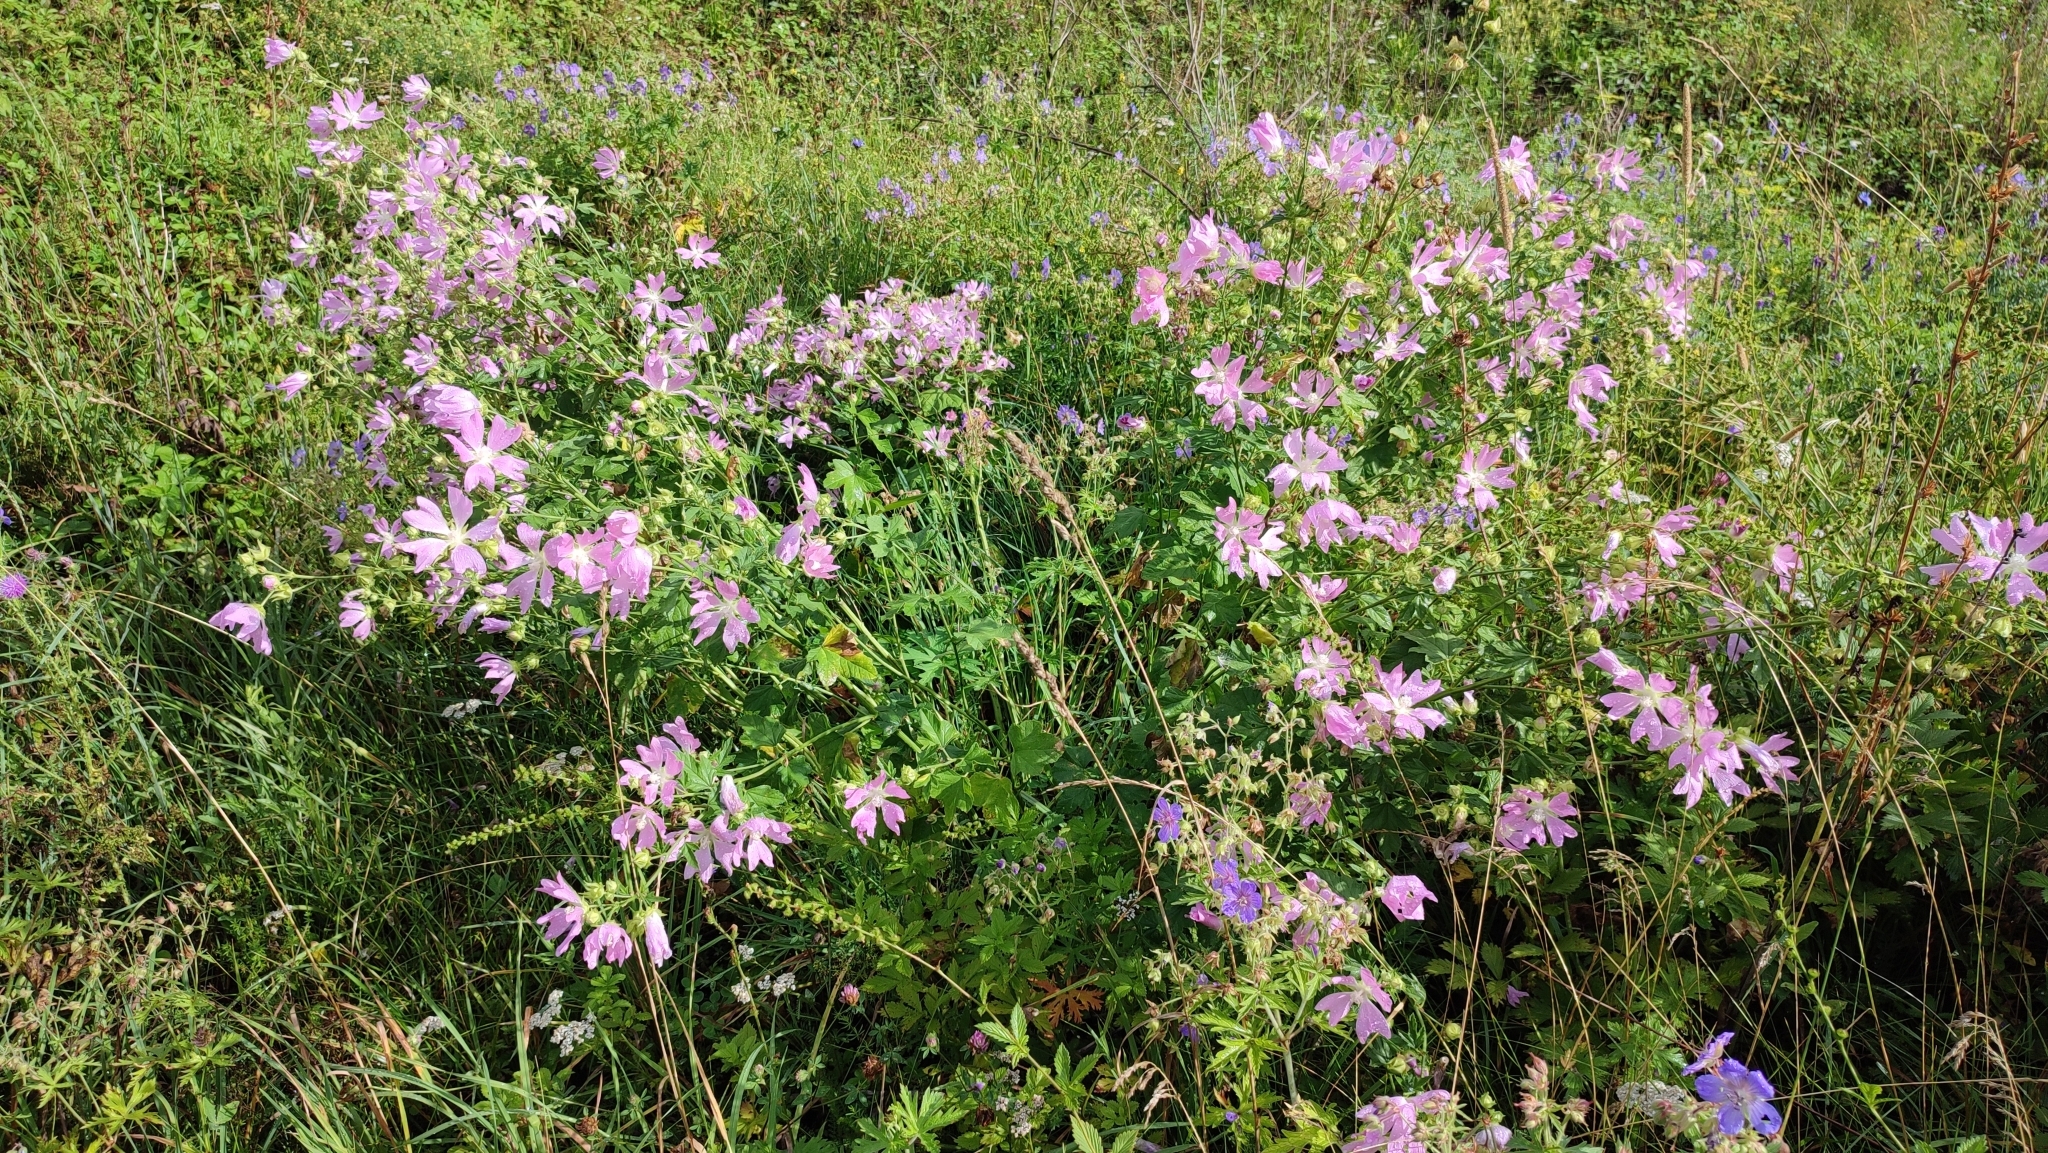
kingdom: Plantae
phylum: Tracheophyta
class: Magnoliopsida
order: Malvales
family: Malvaceae
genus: Malva
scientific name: Malva thuringiaca
